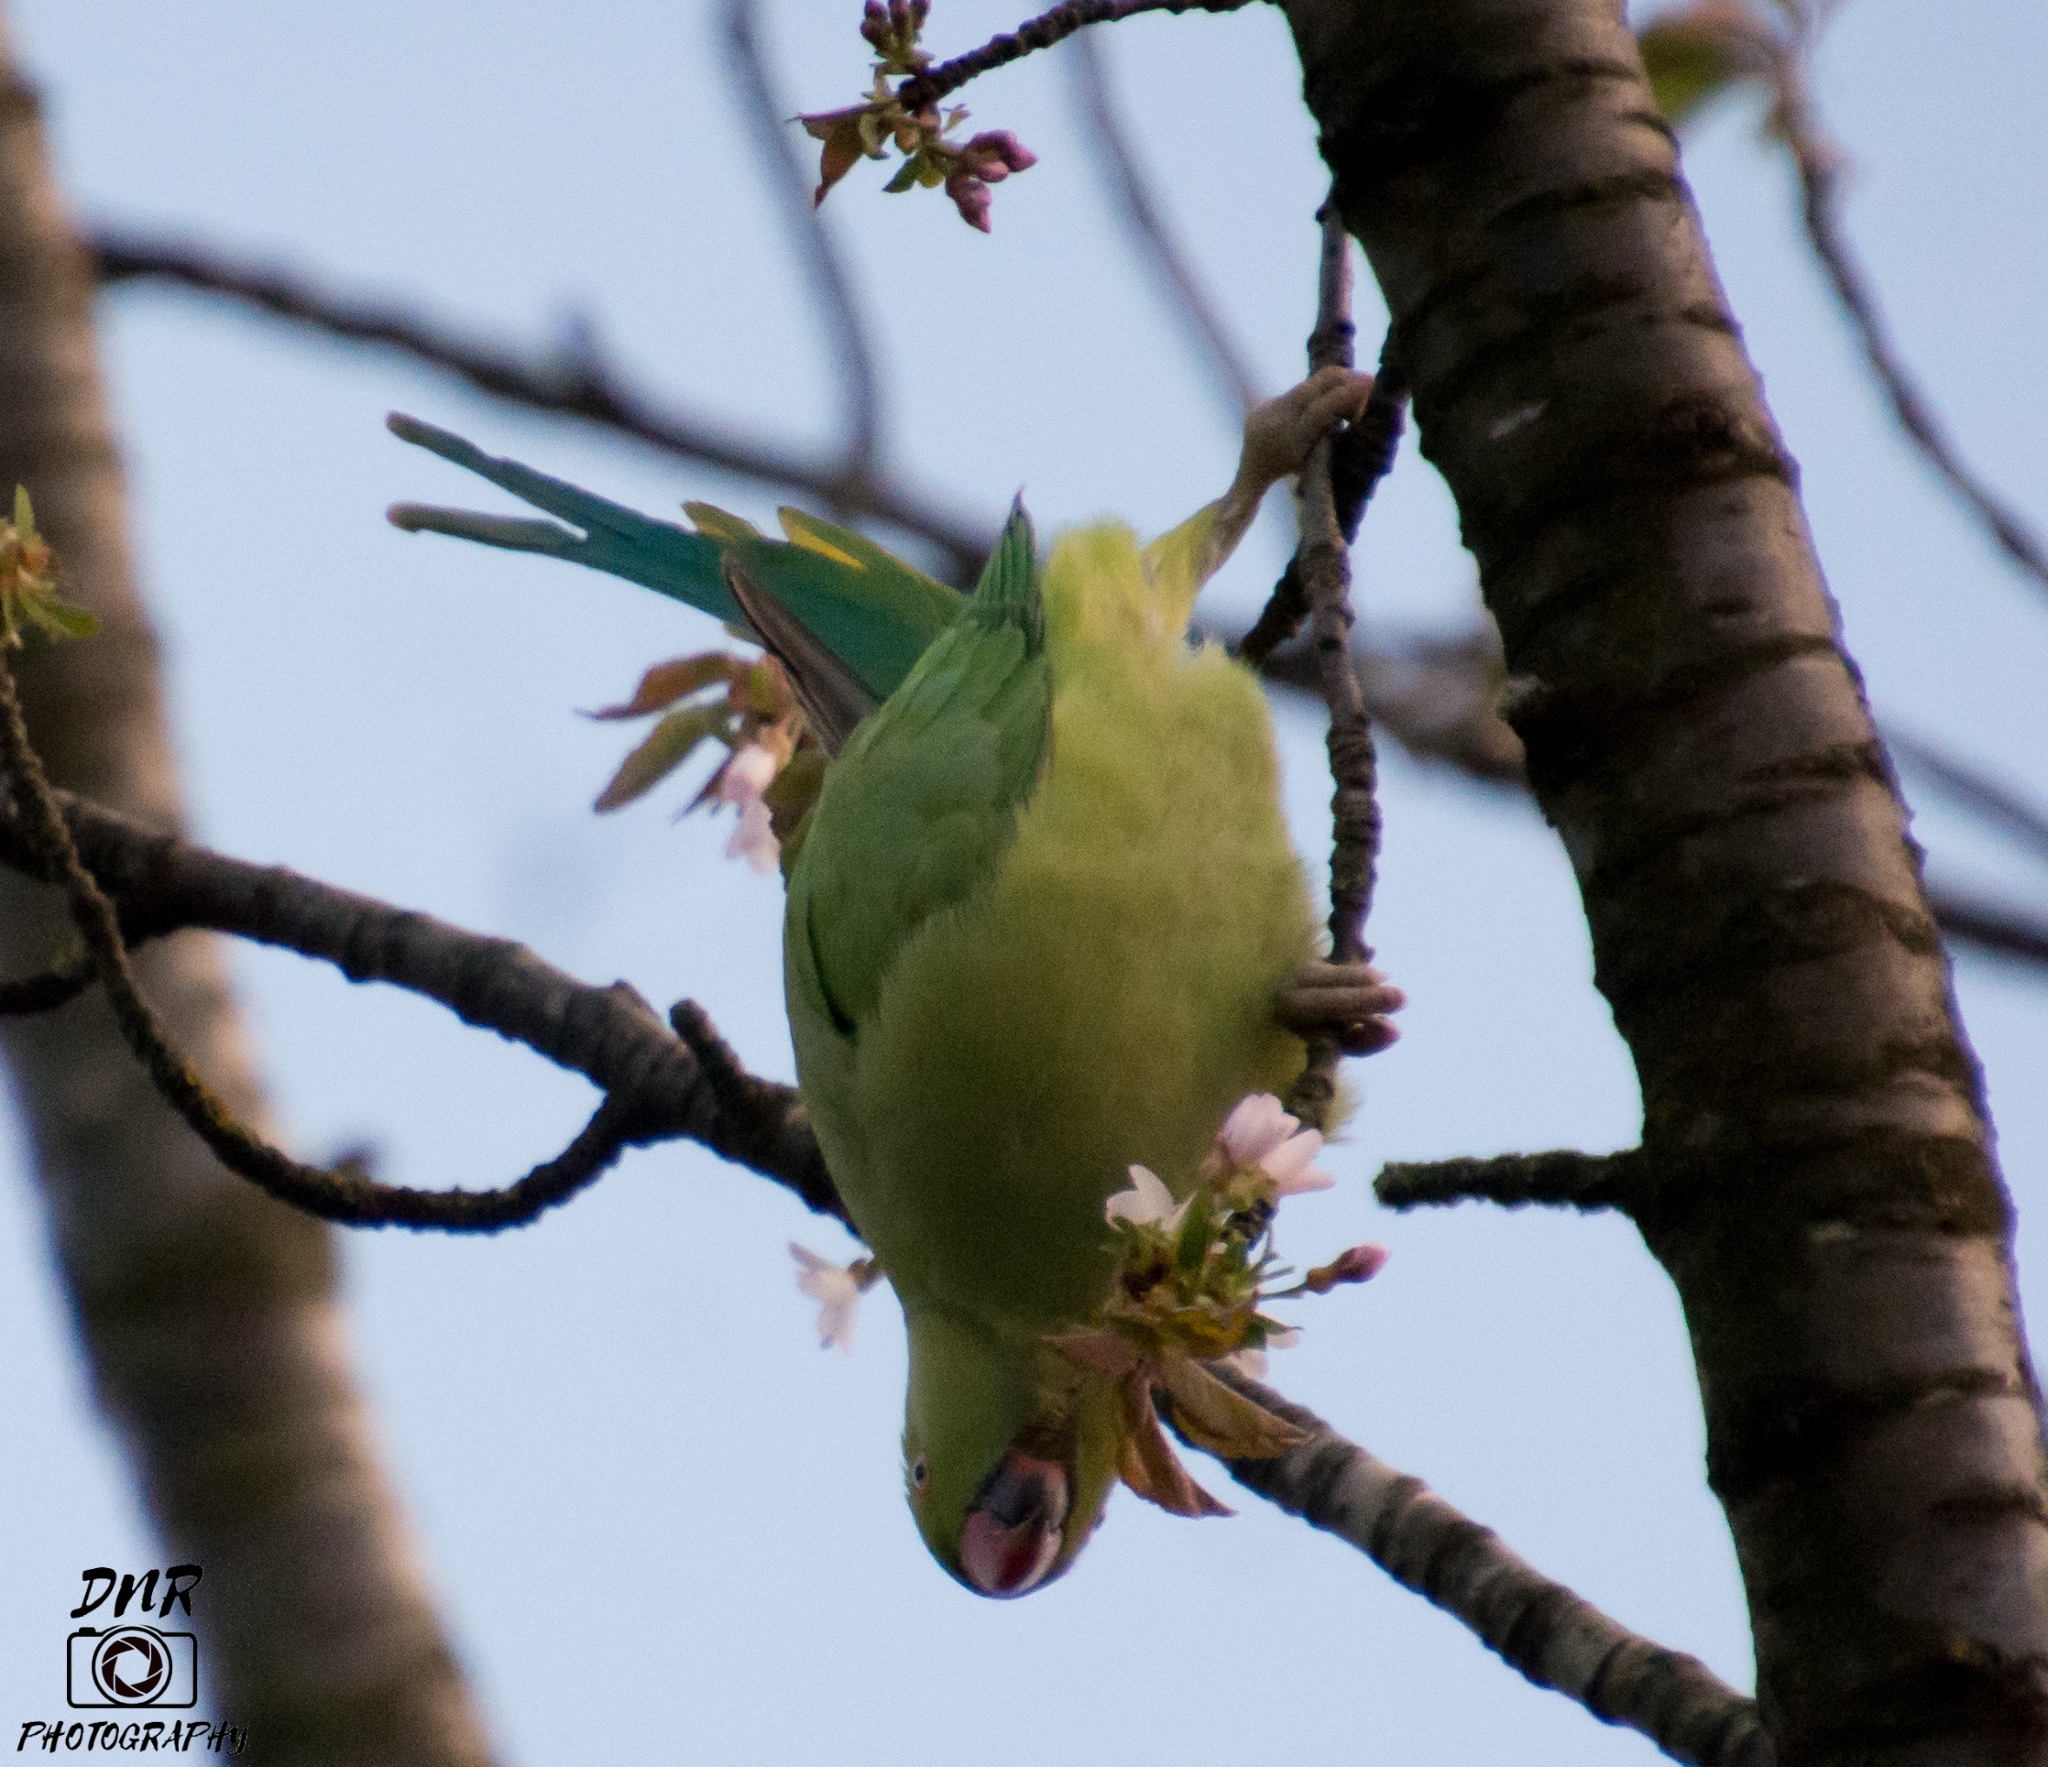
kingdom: Animalia
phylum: Chordata
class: Aves
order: Psittaciformes
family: Psittacidae
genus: Psittacula
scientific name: Psittacula krameri
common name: Rose-ringed parakeet
